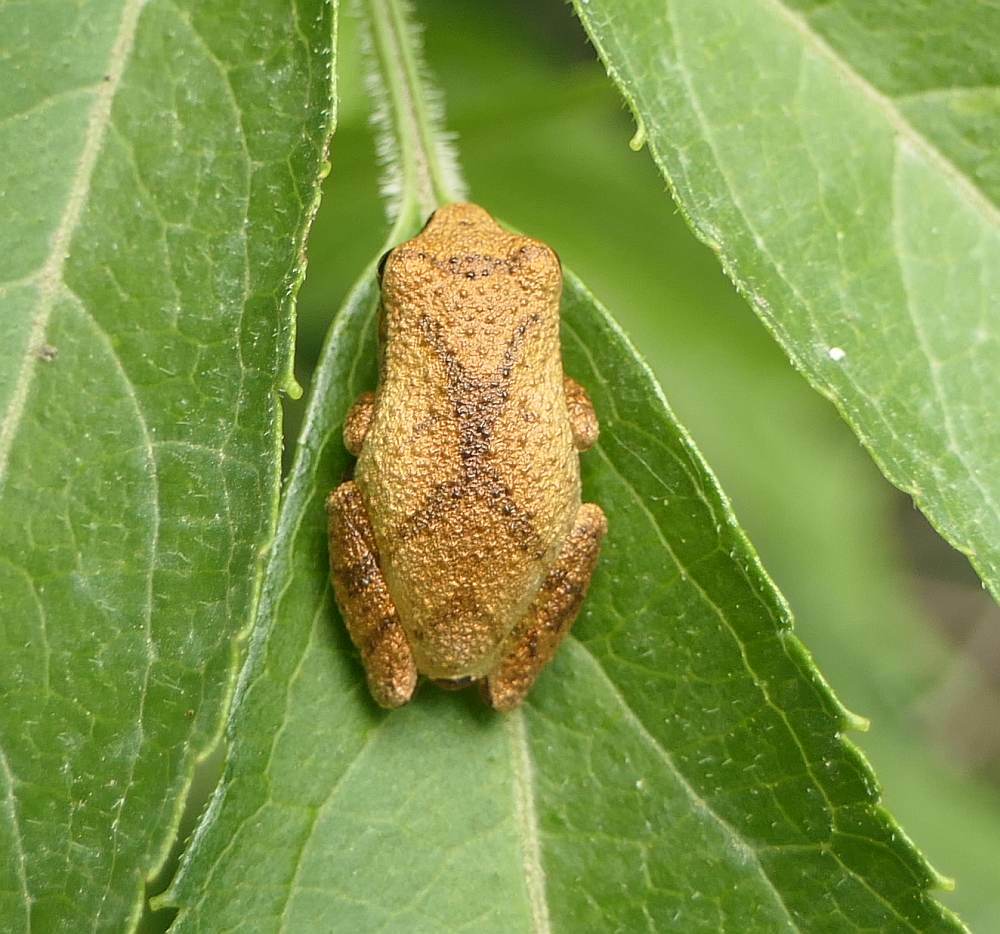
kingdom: Animalia
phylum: Chordata
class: Amphibia
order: Anura
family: Hylidae
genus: Pseudacris
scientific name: Pseudacris crucifer
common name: Spring peeper
